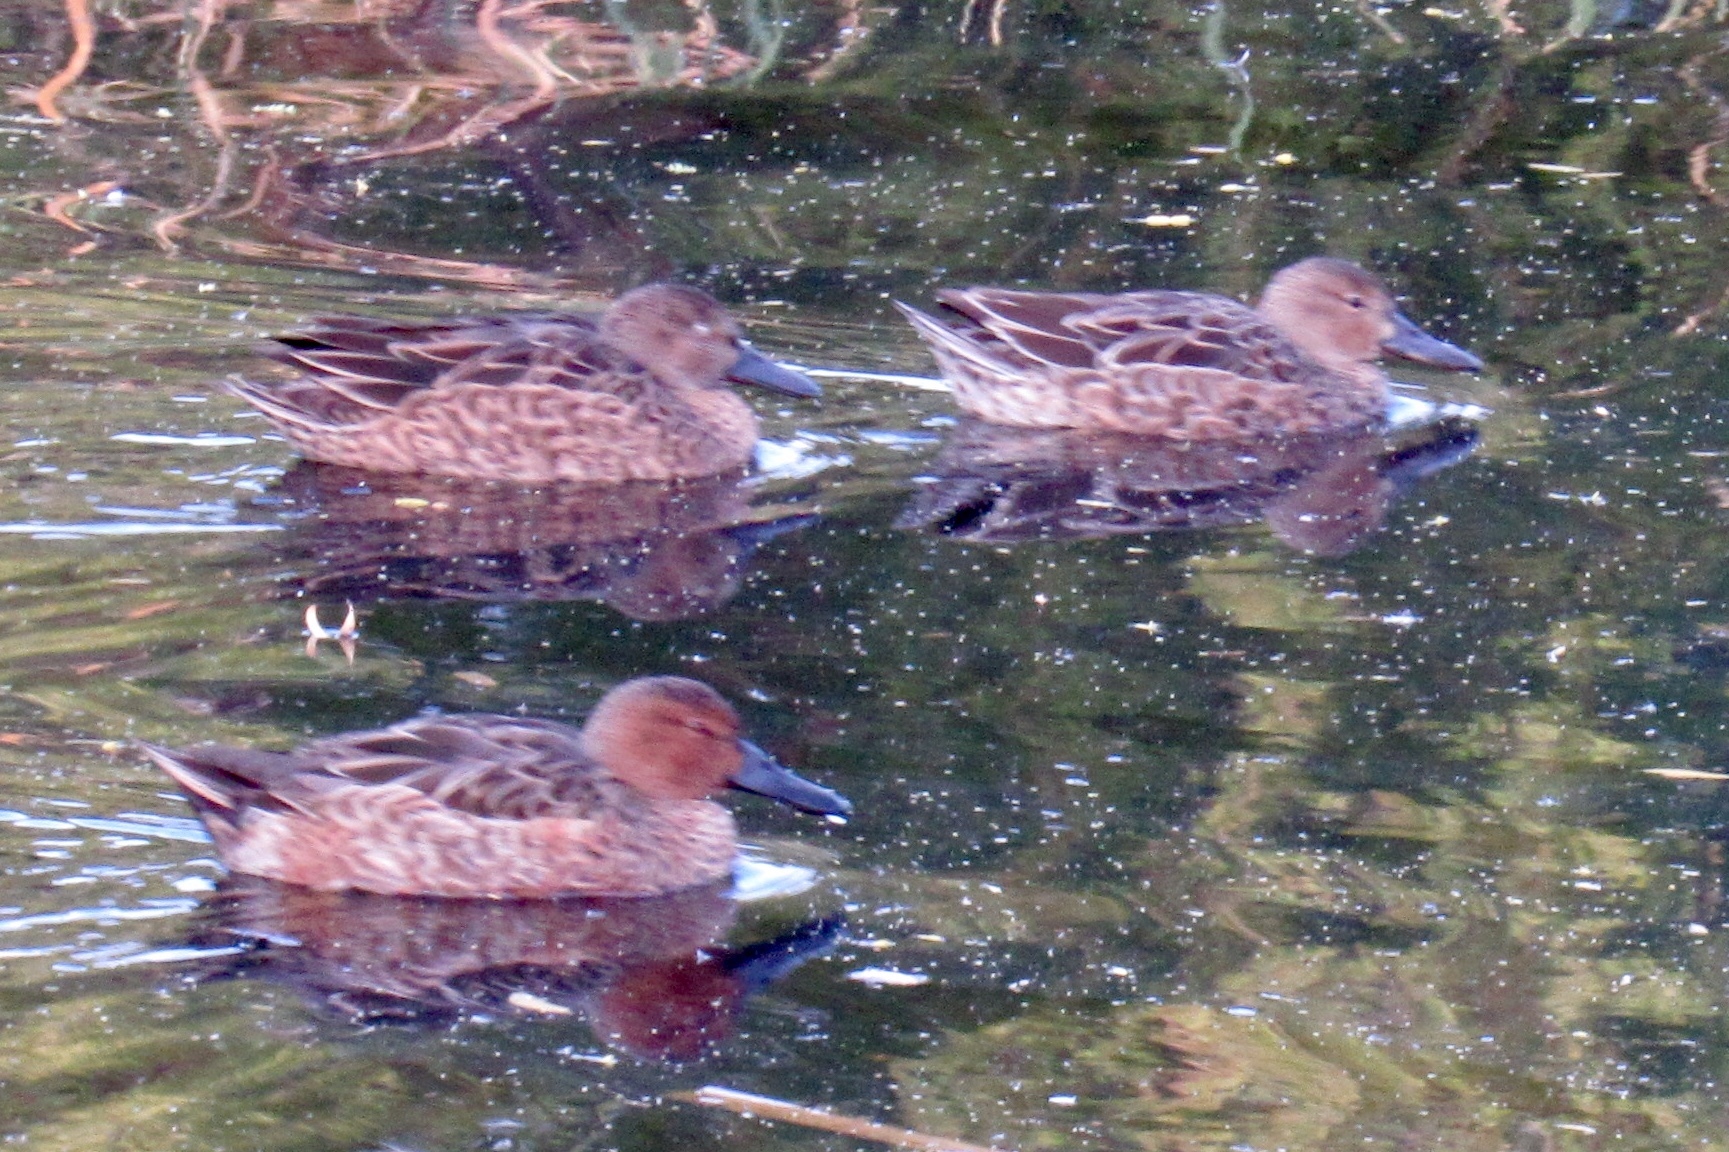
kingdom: Animalia
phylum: Chordata
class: Aves
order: Anseriformes
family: Anatidae
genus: Spatula
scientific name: Spatula cyanoptera
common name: Cinnamon teal
